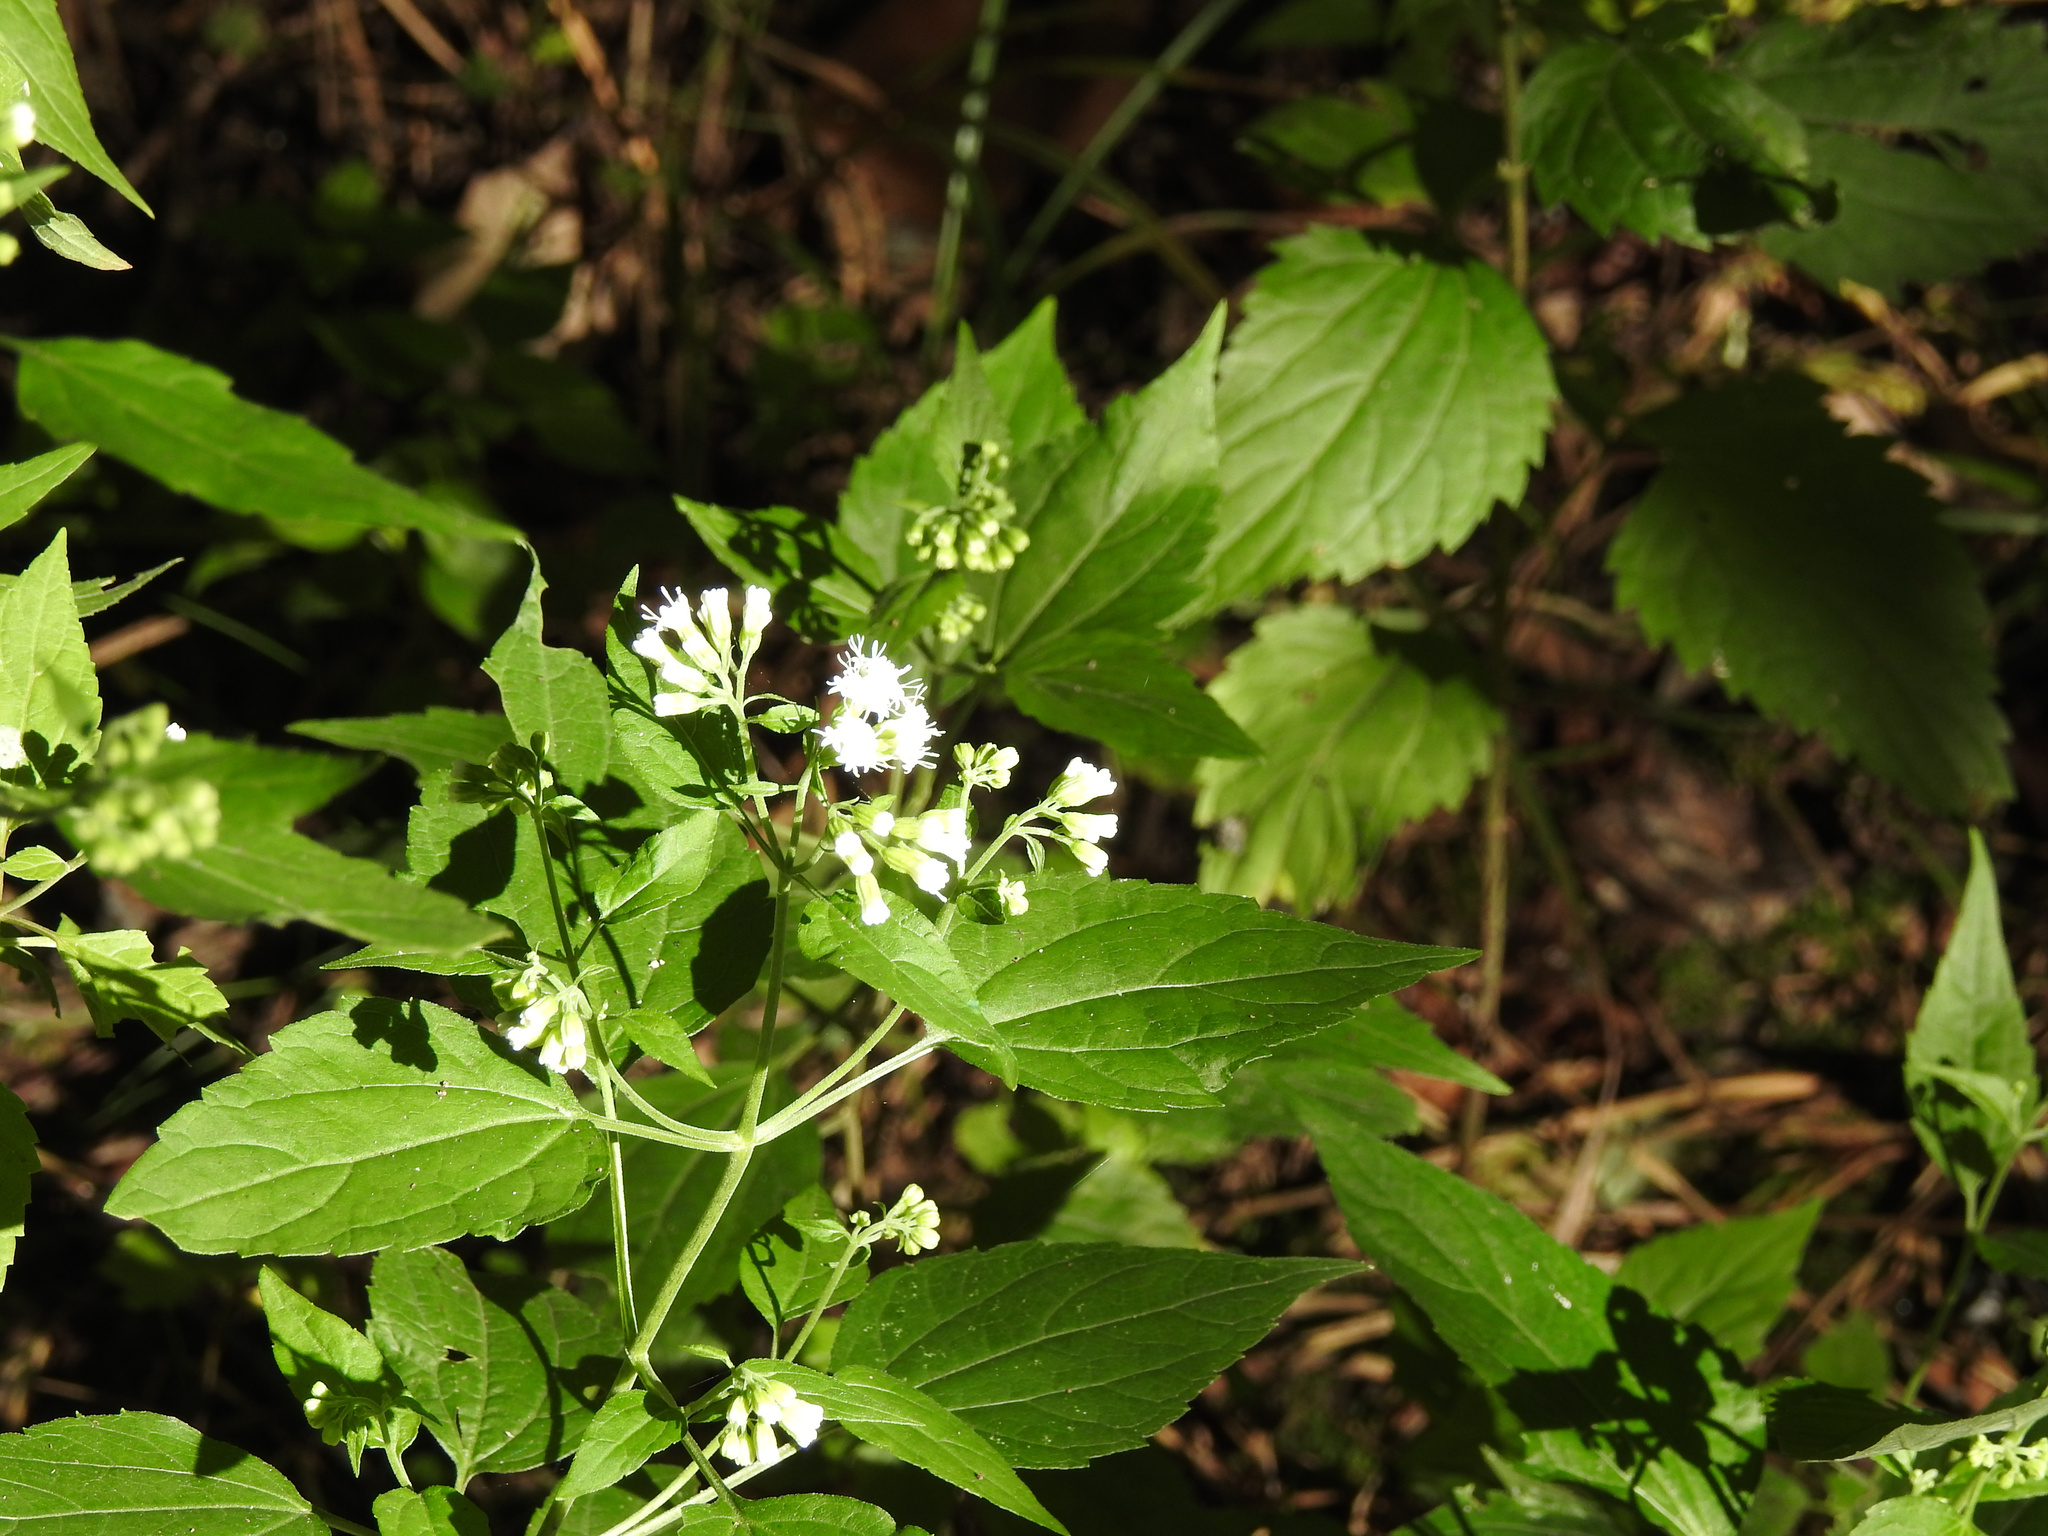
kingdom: Plantae
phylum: Tracheophyta
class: Magnoliopsida
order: Asterales
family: Asteraceae
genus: Ageratina
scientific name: Ageratina altissima
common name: White snakeroot
